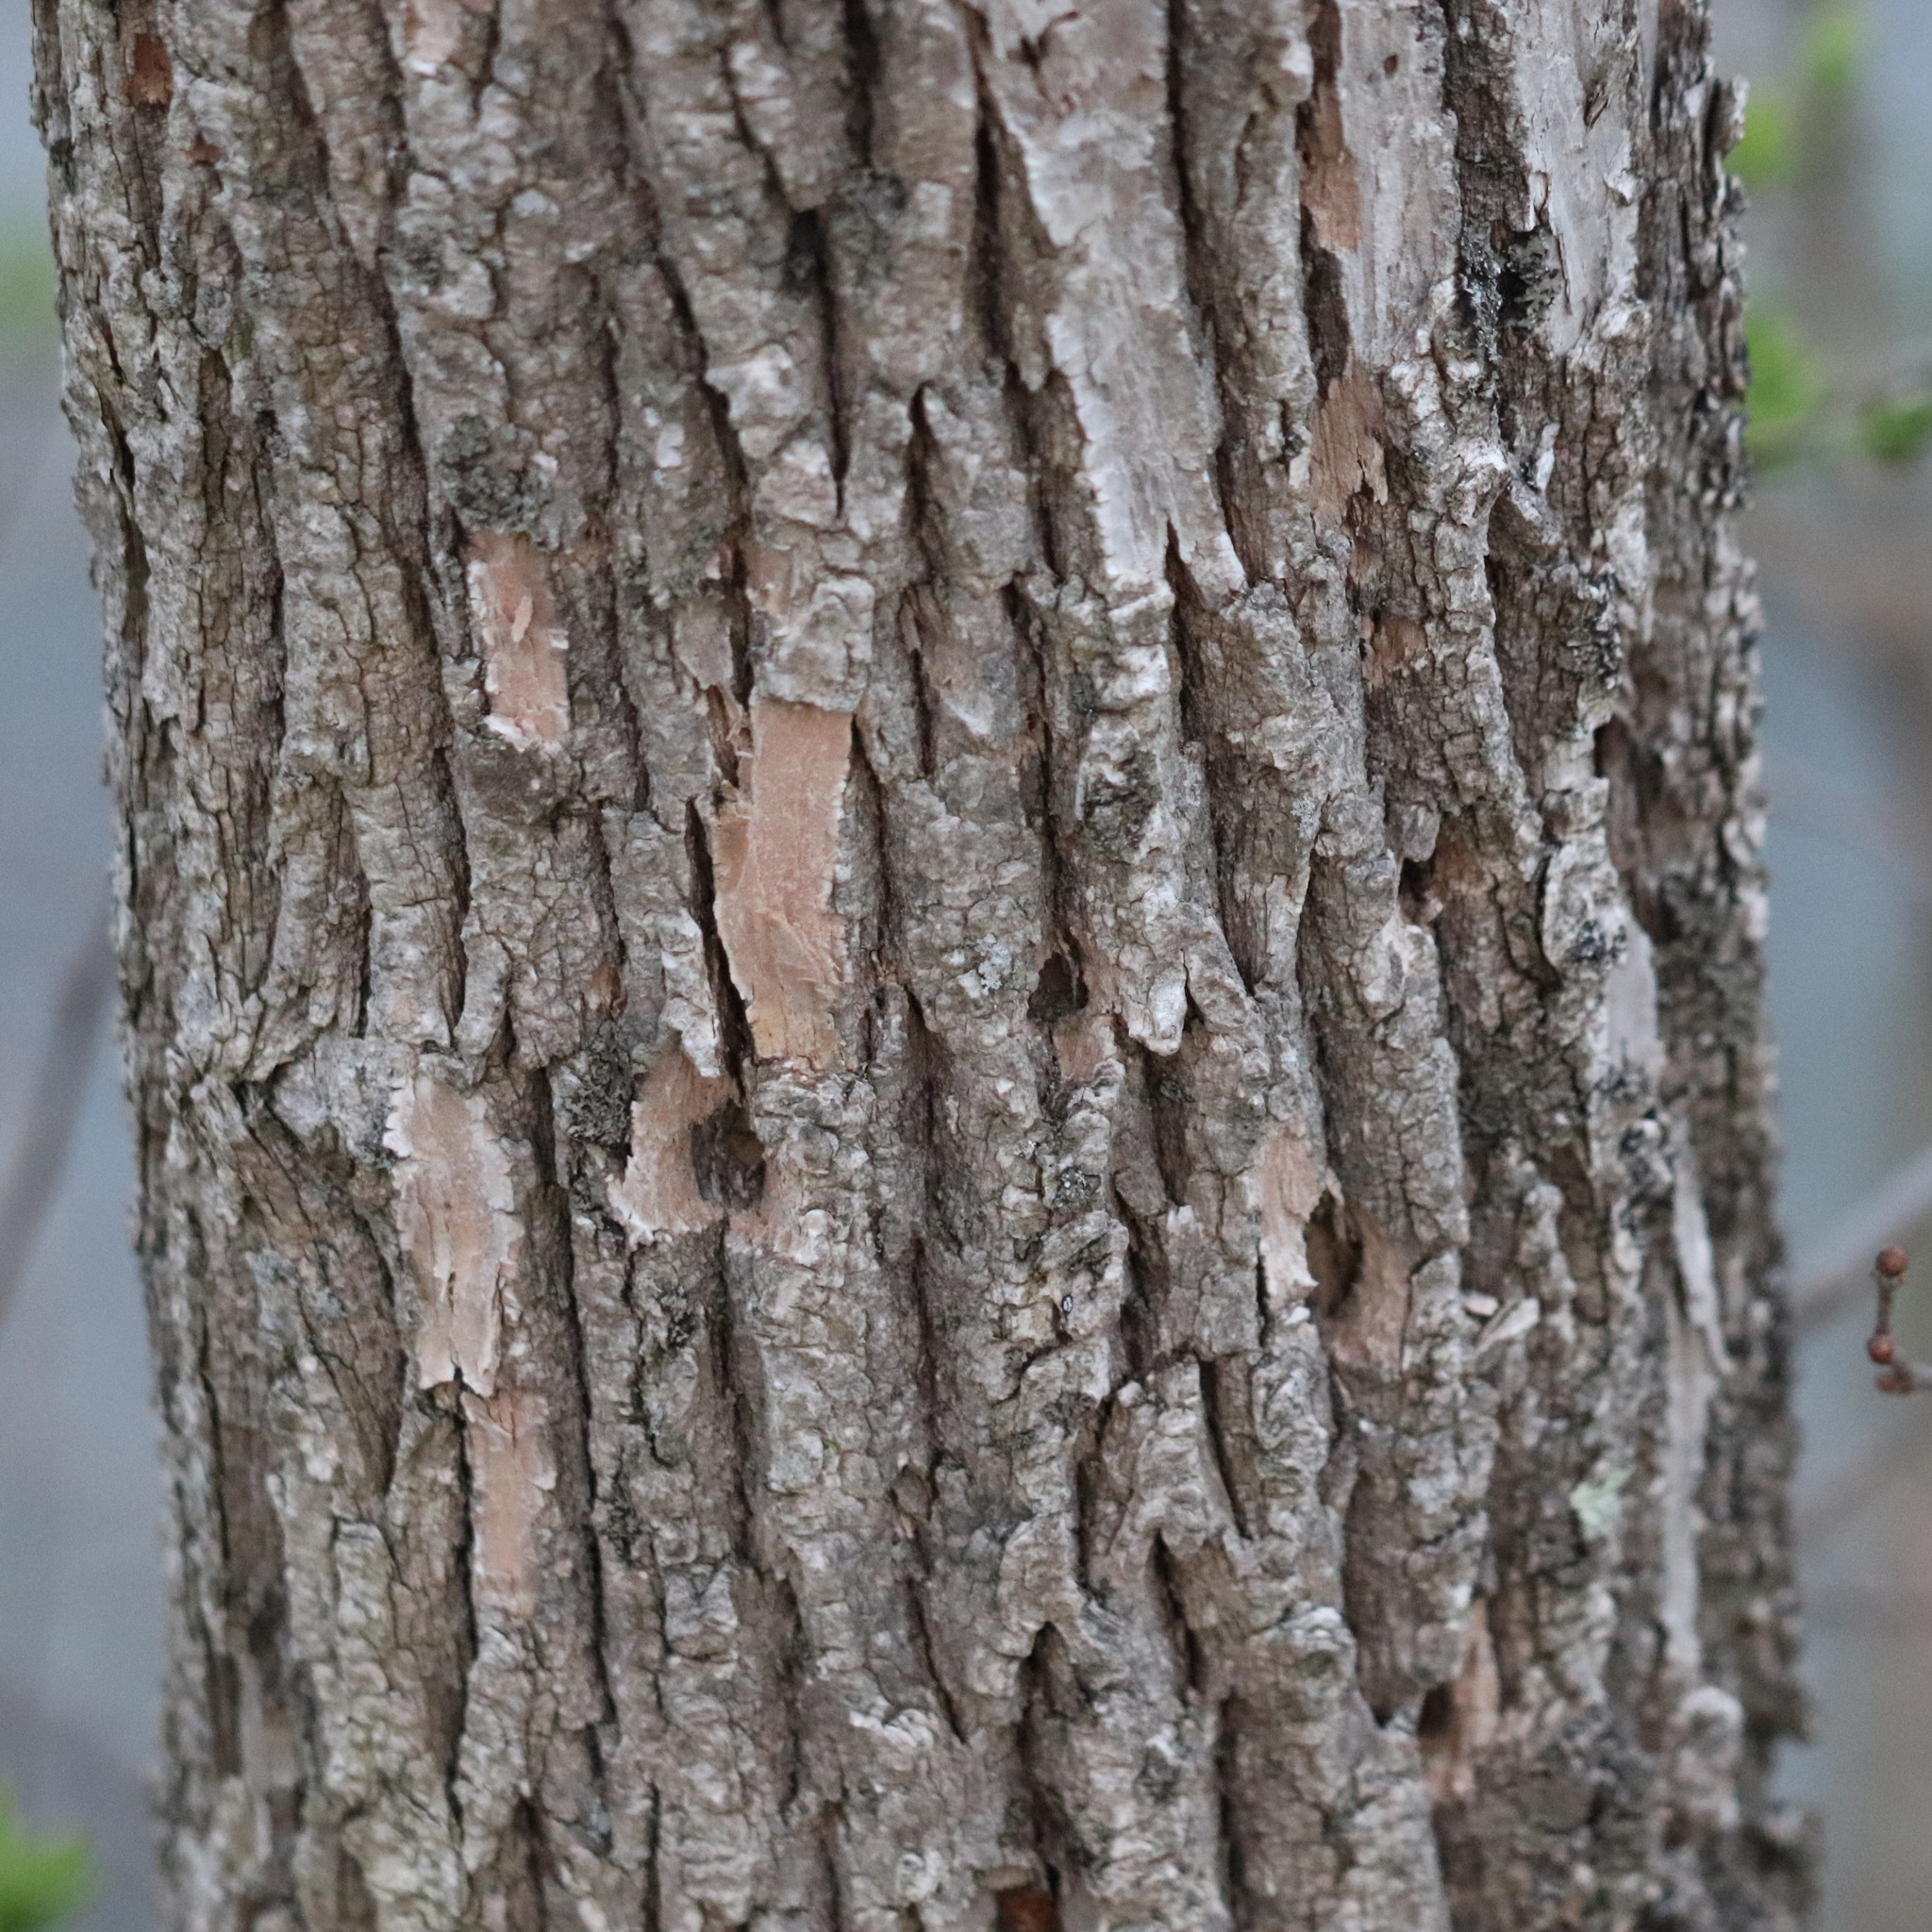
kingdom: Animalia
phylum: Arthropoda
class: Insecta
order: Coleoptera
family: Buprestidae
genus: Agrilus
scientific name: Agrilus planipennis
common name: Emerald ash borer
